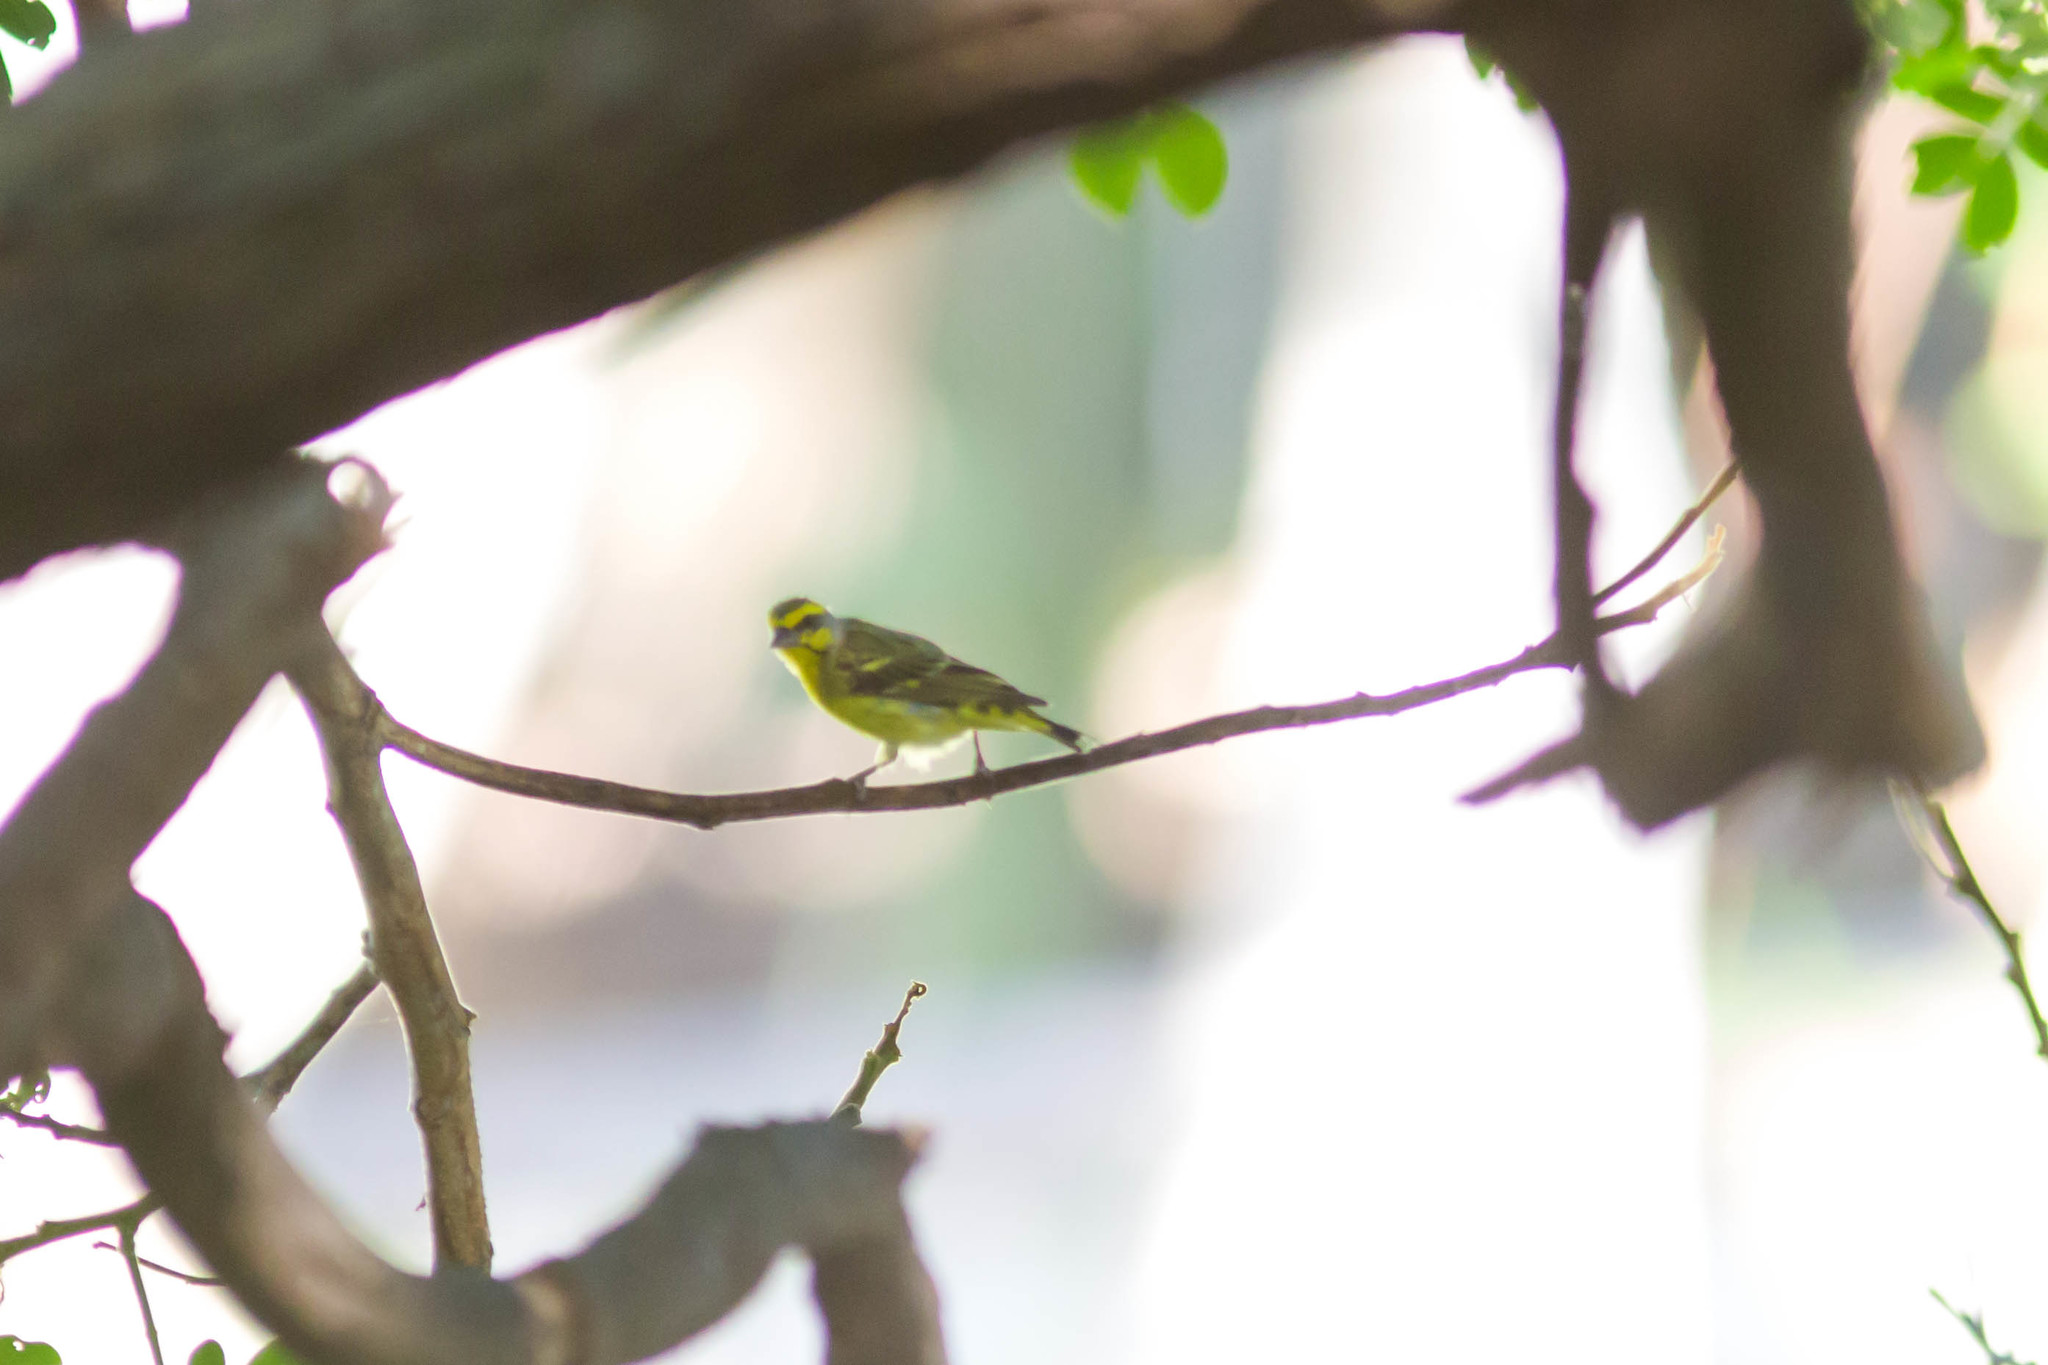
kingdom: Animalia
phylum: Chordata
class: Aves
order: Passeriformes
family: Fringillidae
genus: Crithagra
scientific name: Crithagra mozambica
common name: Yellow-fronted canary
